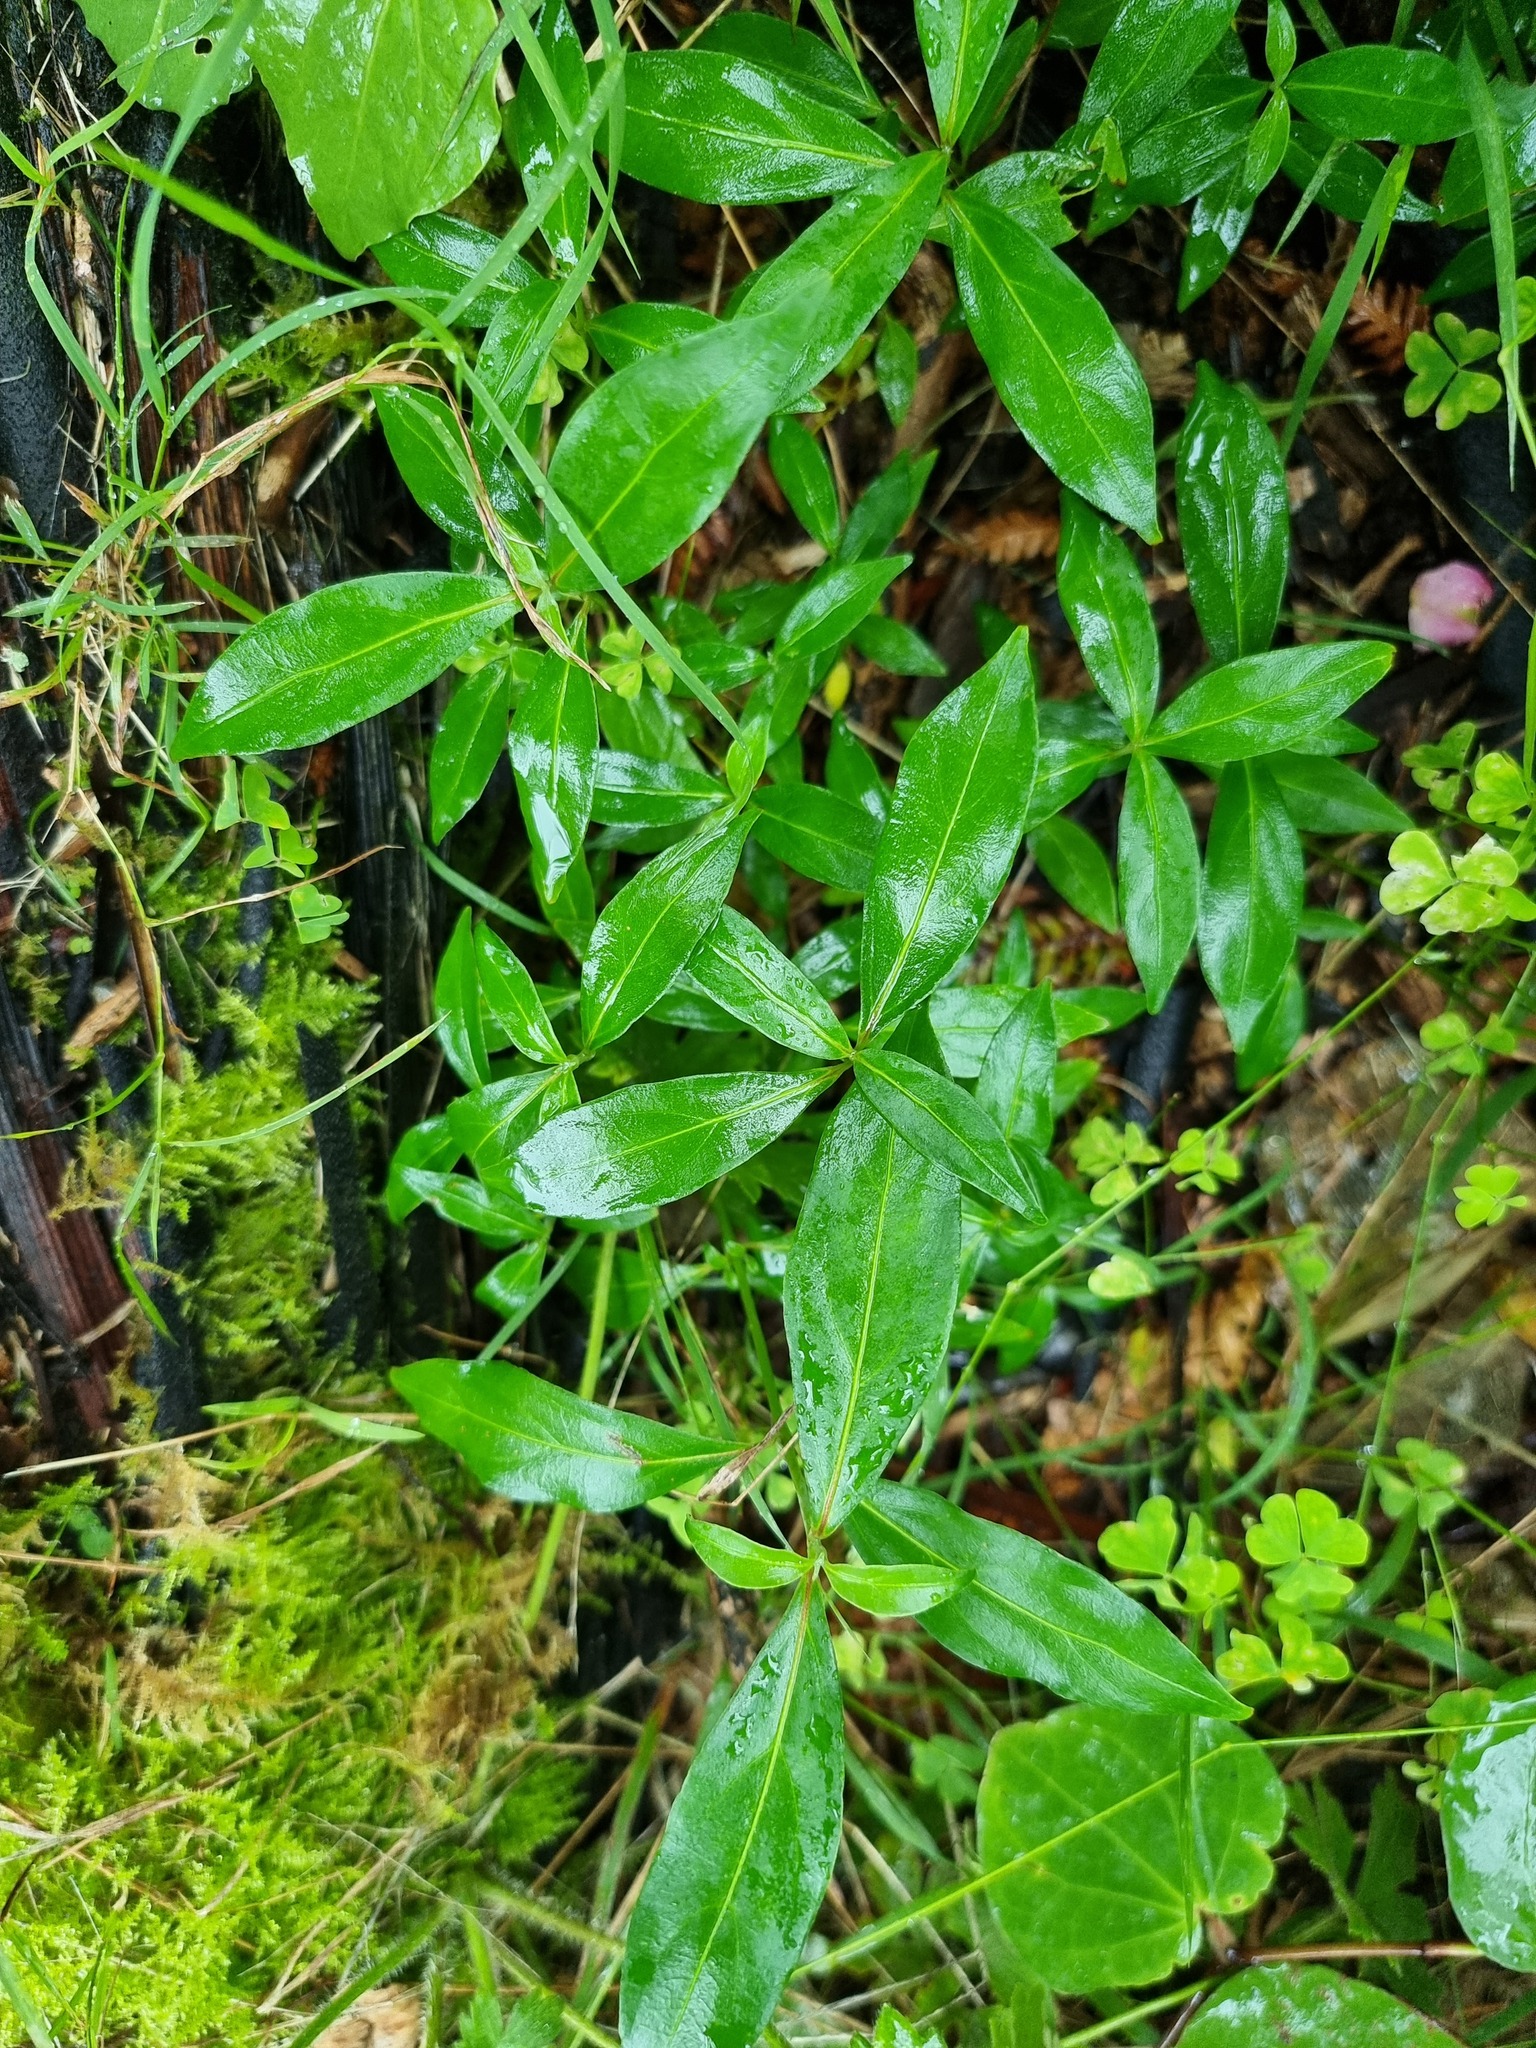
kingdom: Plantae
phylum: Tracheophyta
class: Magnoliopsida
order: Cornales
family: Cornaceae
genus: Cornus
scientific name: Cornus capitata
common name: Bentham's cornel
